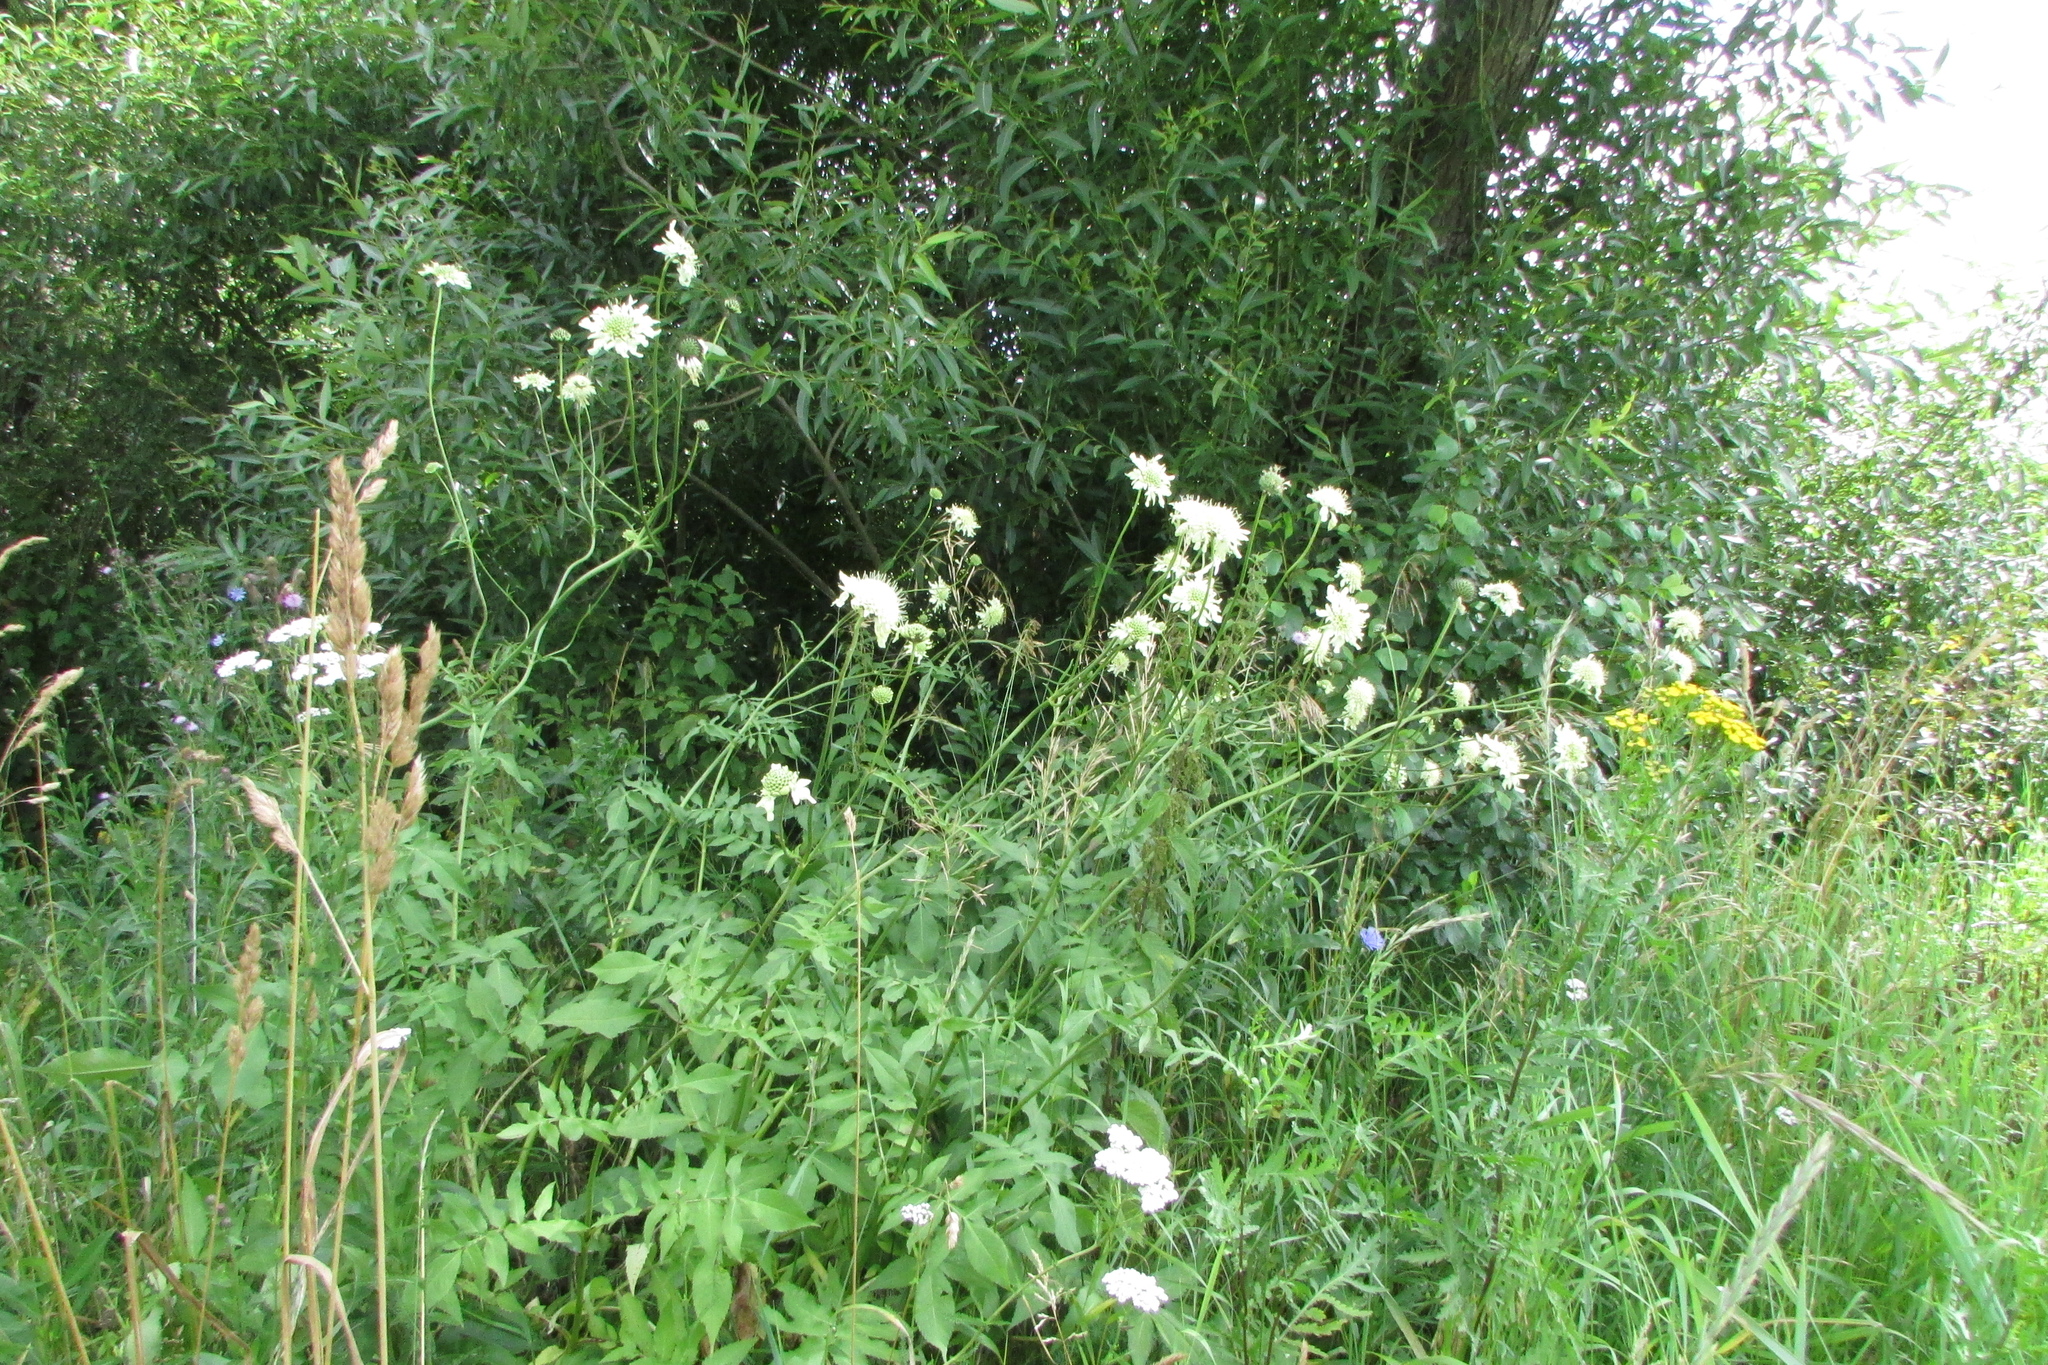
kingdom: Plantae
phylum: Tracheophyta
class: Magnoliopsida
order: Dipsacales
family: Caprifoliaceae
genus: Cephalaria
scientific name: Cephalaria litvinovii
